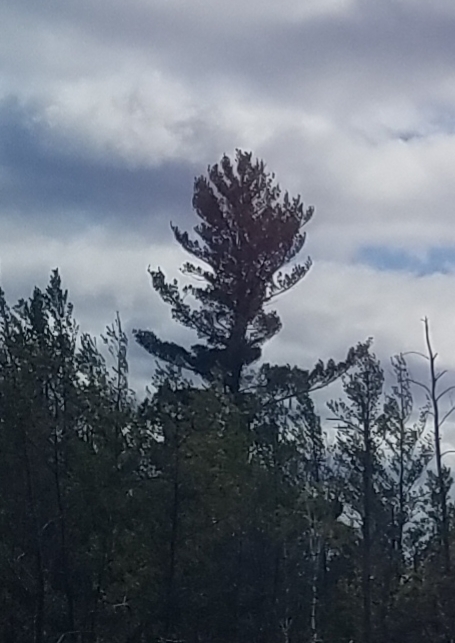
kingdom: Plantae
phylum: Tracheophyta
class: Pinopsida
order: Pinales
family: Pinaceae
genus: Pinus
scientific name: Pinus strobus
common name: Weymouth pine
